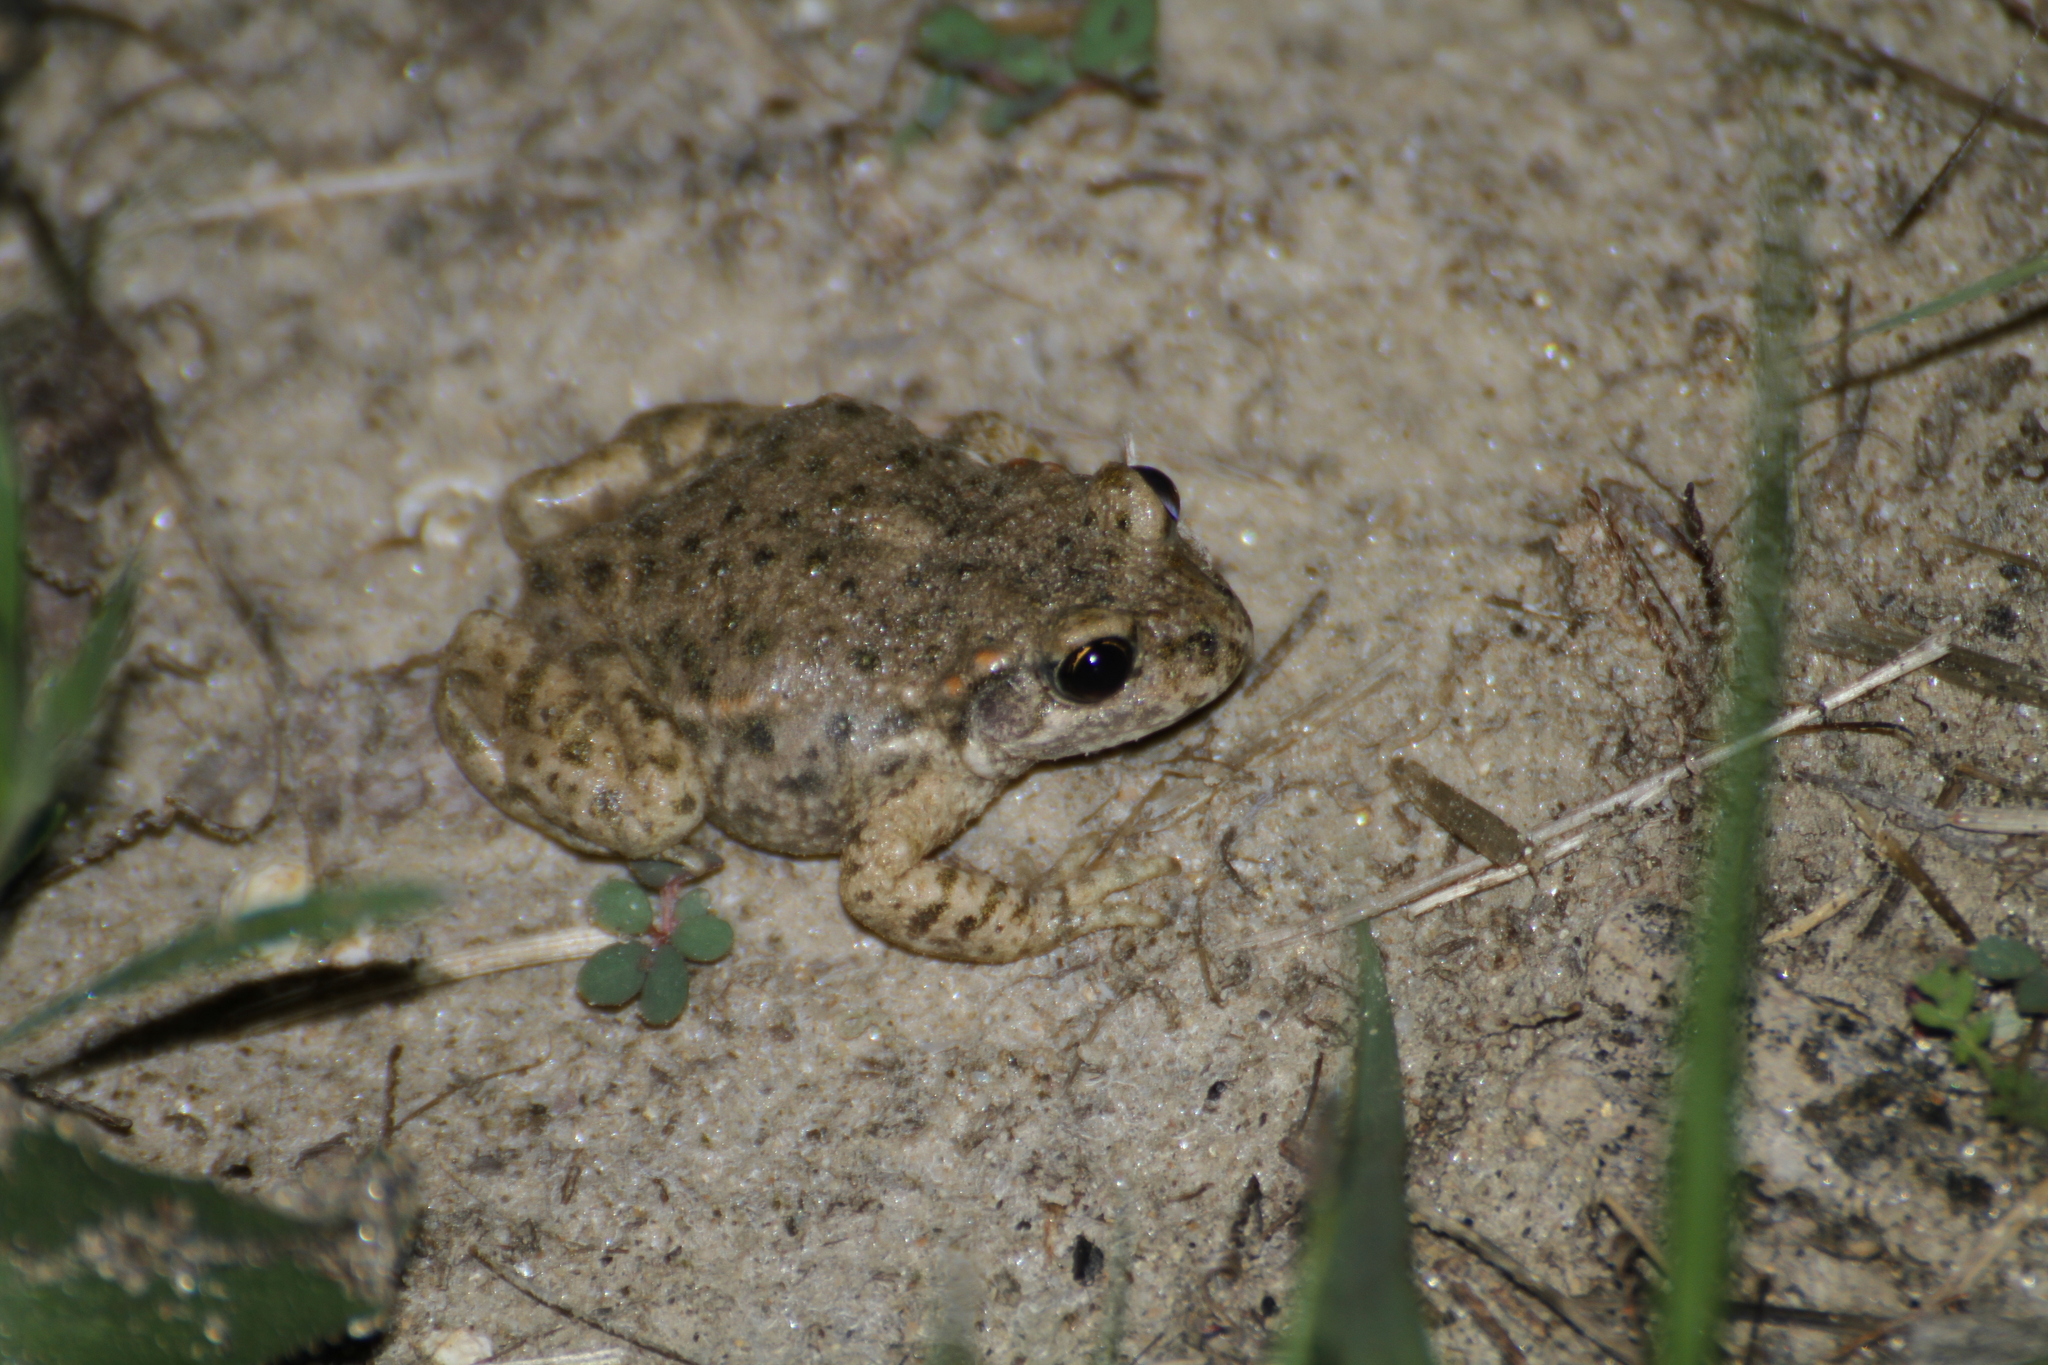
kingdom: Animalia
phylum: Chordata
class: Amphibia
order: Anura
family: Alytidae
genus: Alytes
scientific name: Alytes obstetricans
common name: Midwife toad
